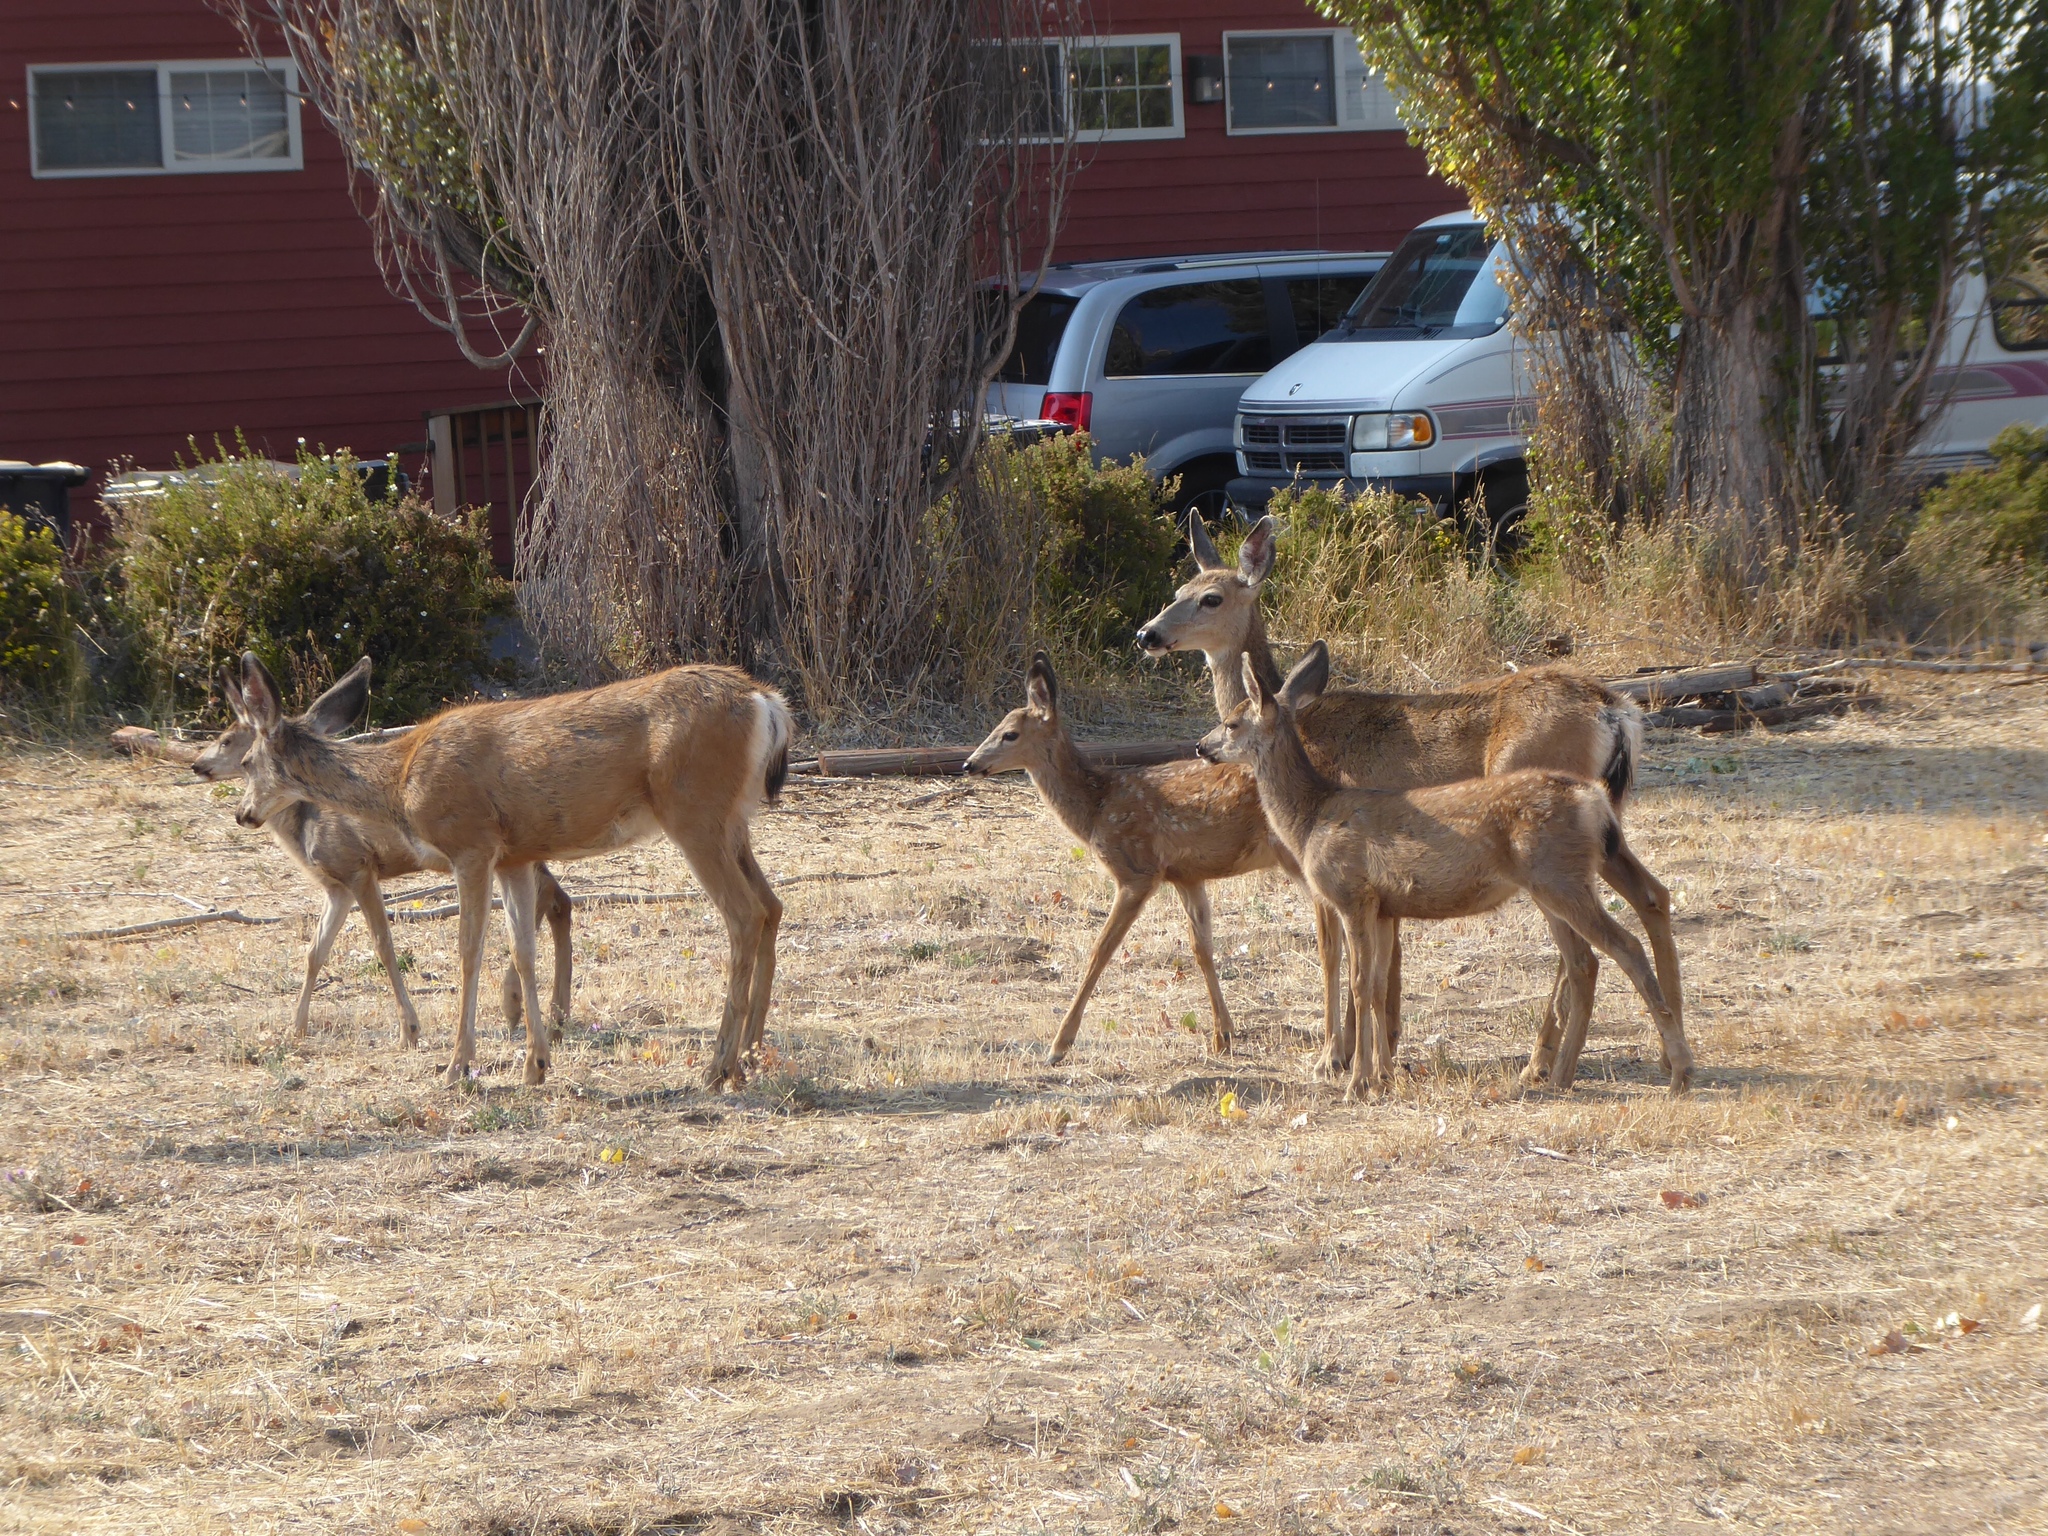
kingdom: Animalia
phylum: Chordata
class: Mammalia
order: Artiodactyla
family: Cervidae
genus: Odocoileus
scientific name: Odocoileus hemionus
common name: Mule deer
